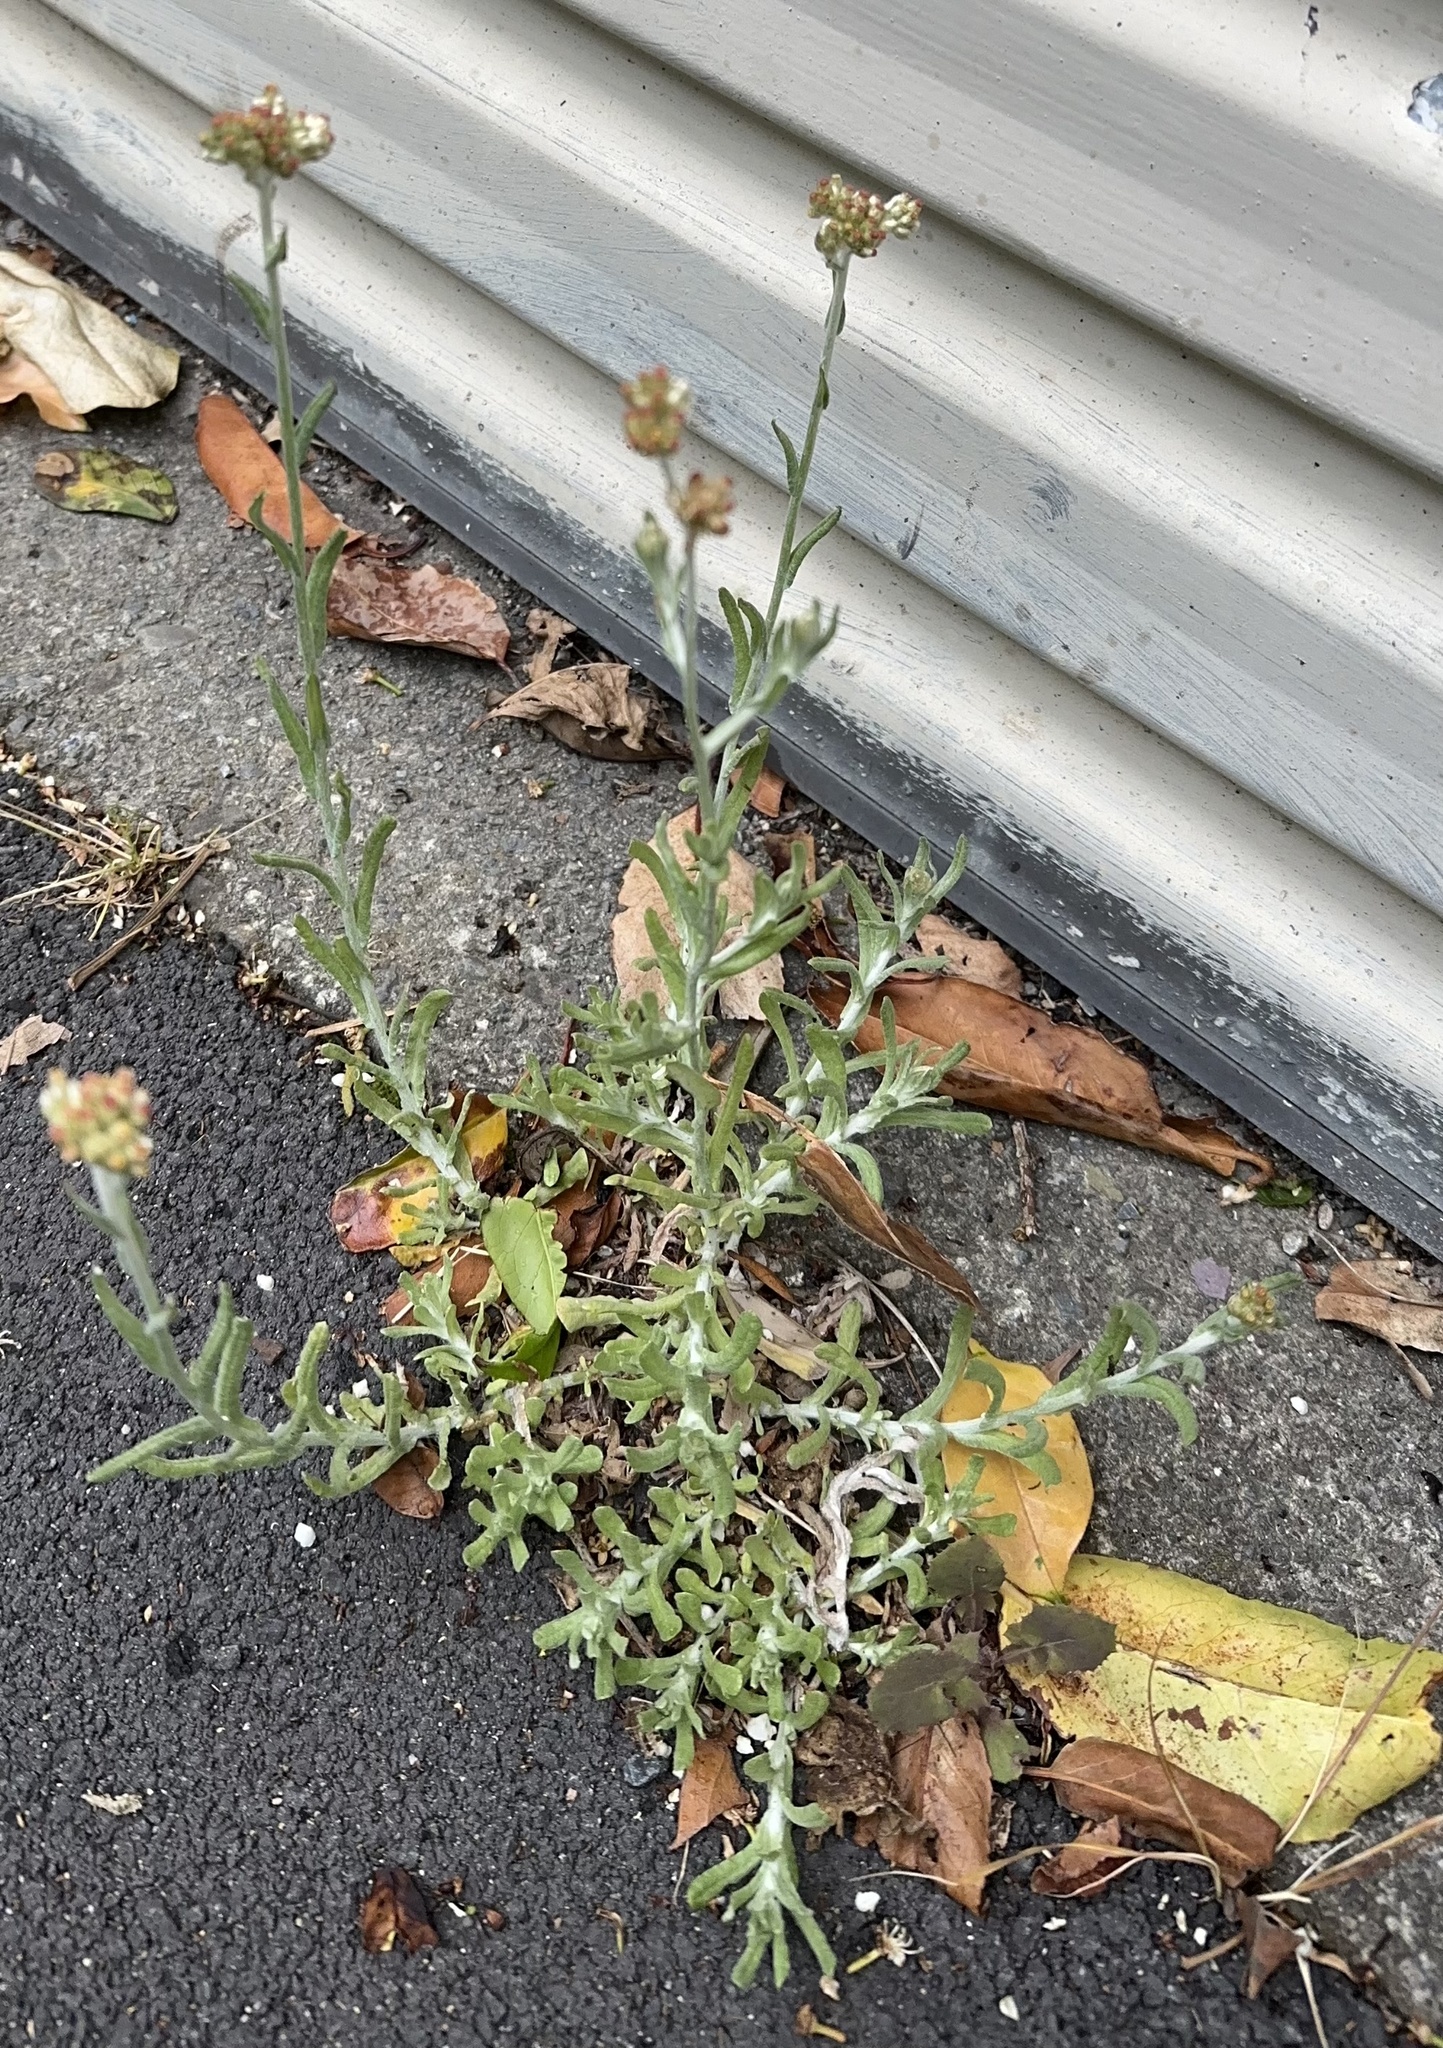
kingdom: Plantae
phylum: Tracheophyta
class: Magnoliopsida
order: Asterales
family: Asteraceae
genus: Helichrysum
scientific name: Helichrysum luteoalbum
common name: Daisy
